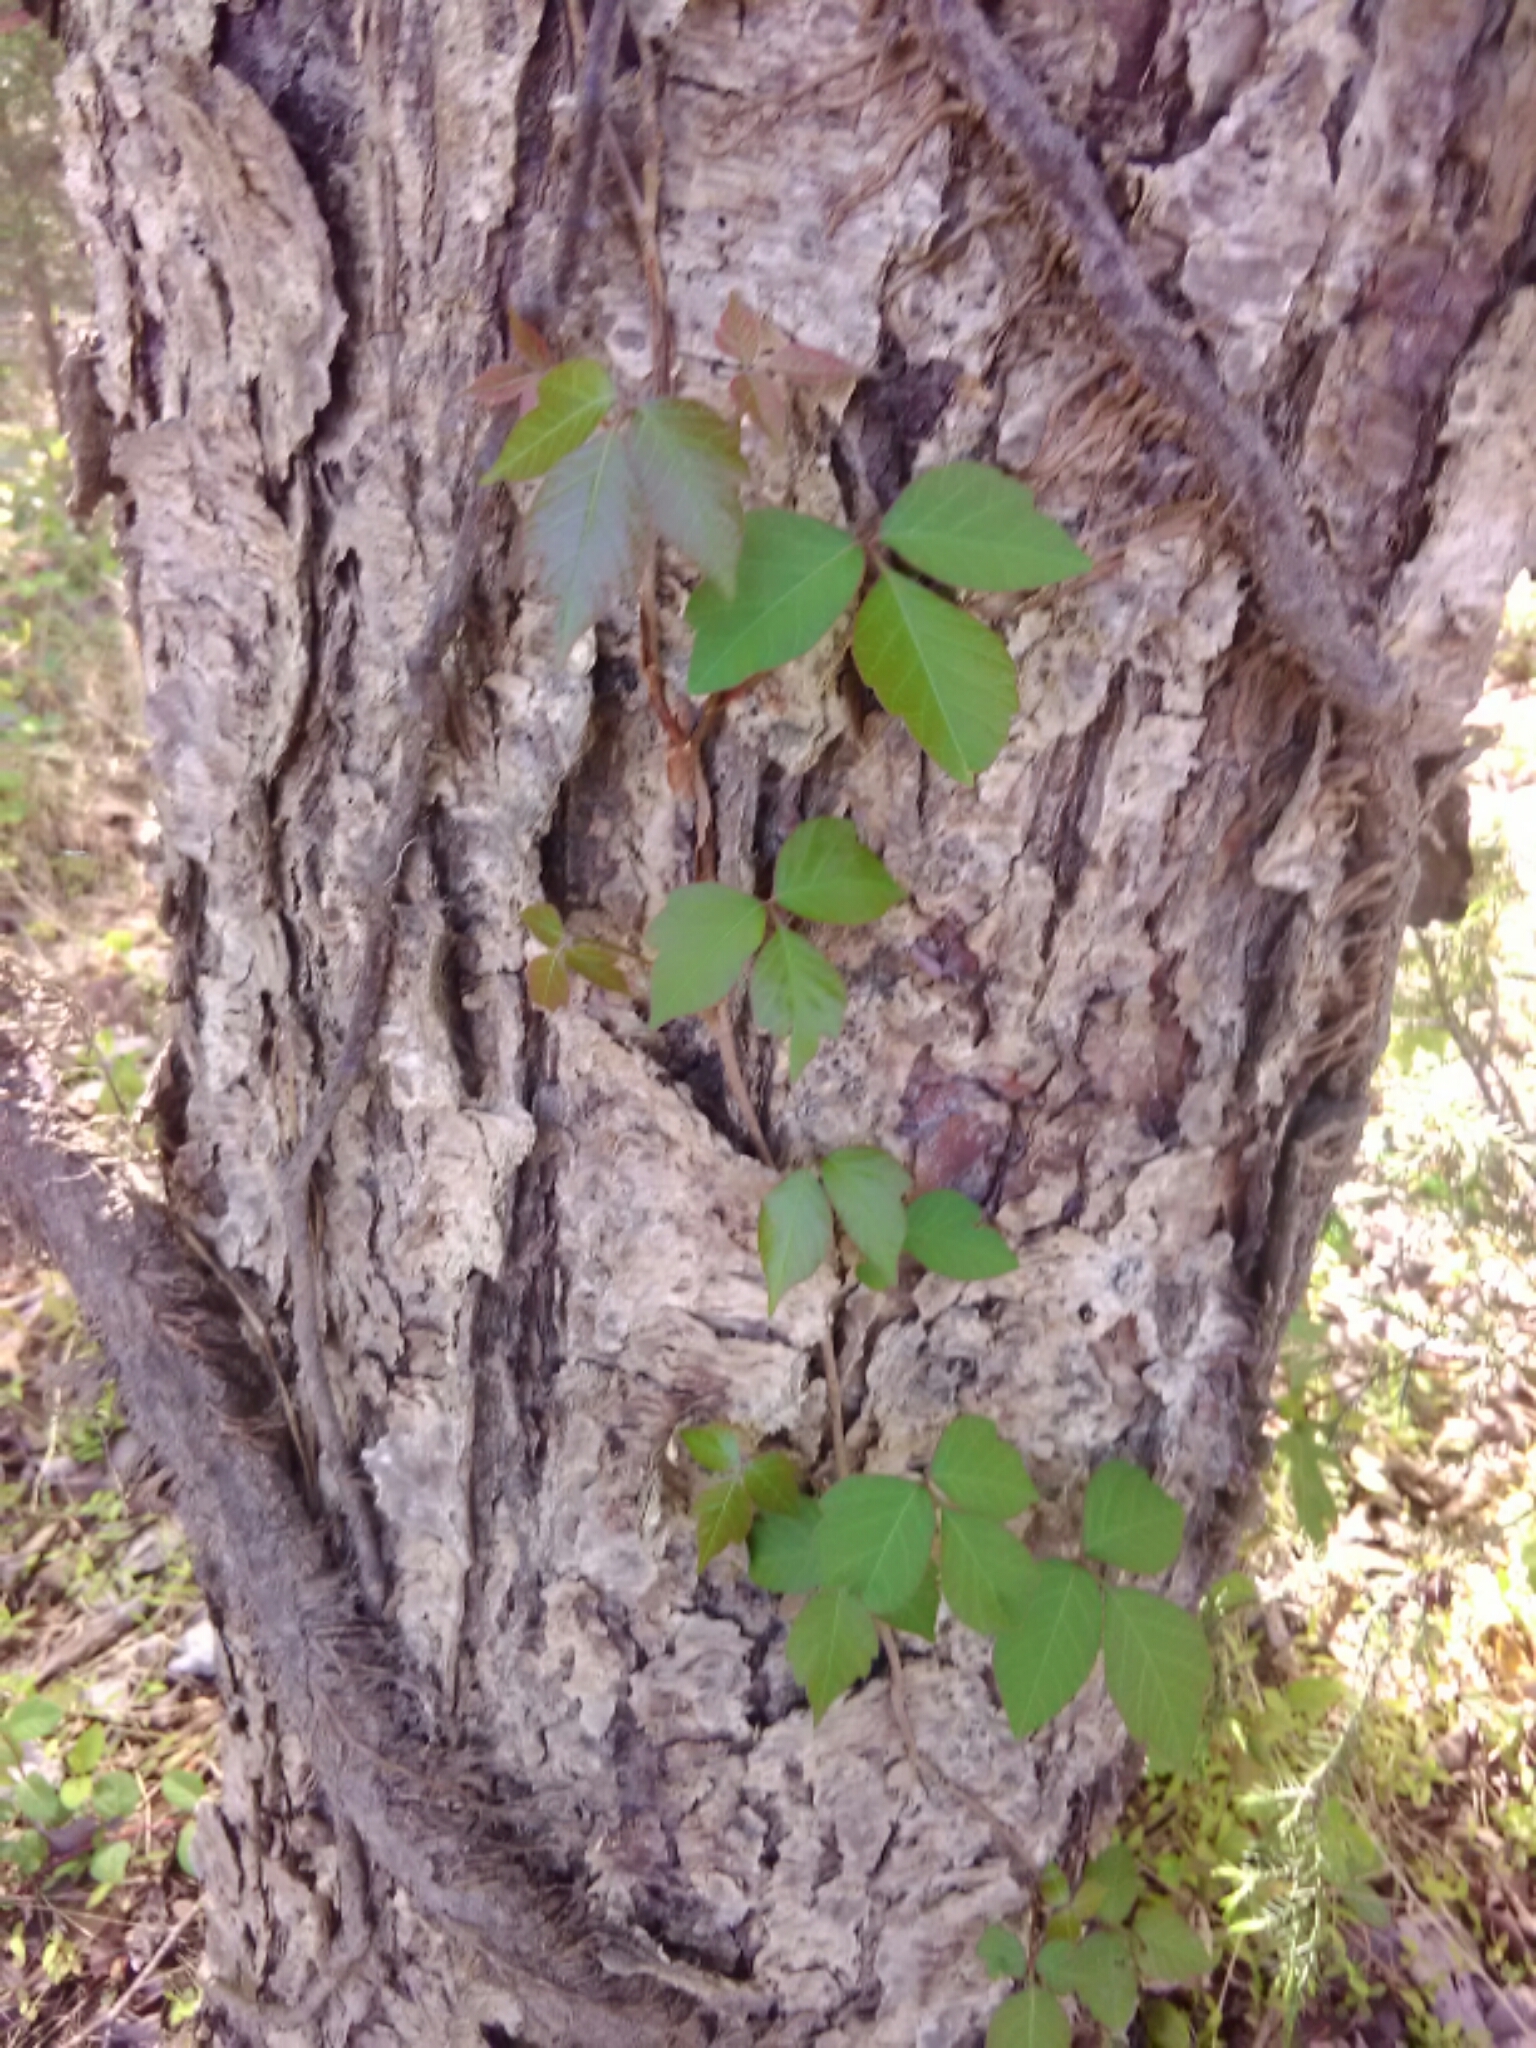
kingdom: Plantae
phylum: Tracheophyta
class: Magnoliopsida
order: Sapindales
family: Anacardiaceae
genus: Toxicodendron
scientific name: Toxicodendron radicans
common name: Poison ivy
